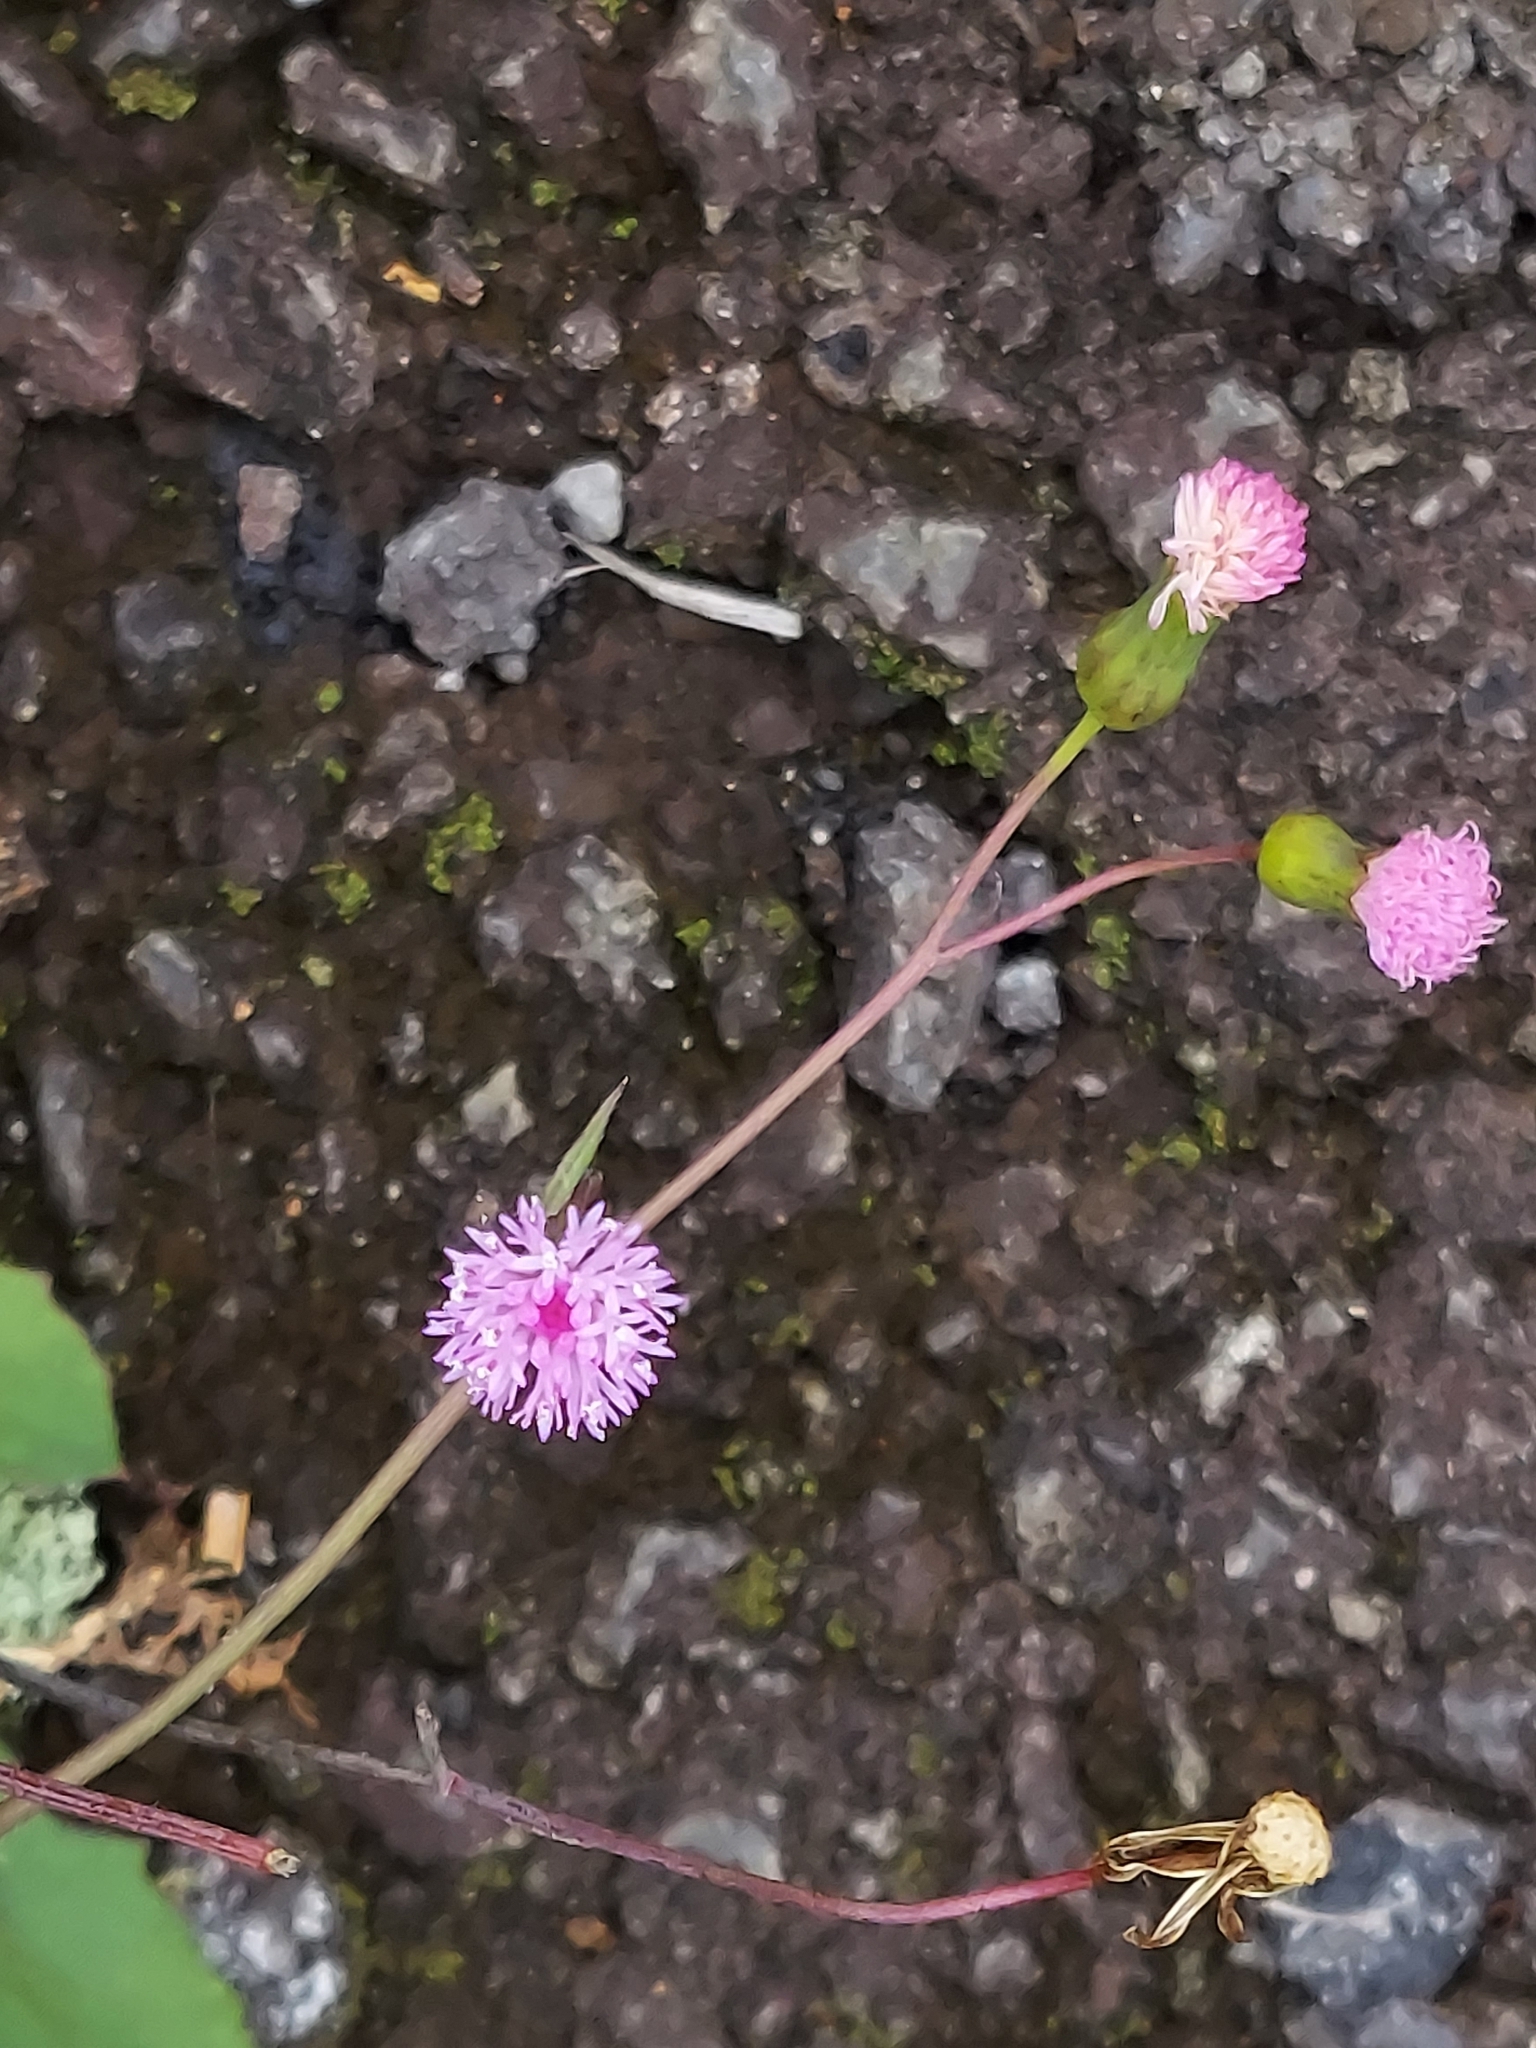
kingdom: Plantae
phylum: Tracheophyta
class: Magnoliopsida
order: Asterales
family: Asteraceae
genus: Emilia
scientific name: Emilia sonchifolia
